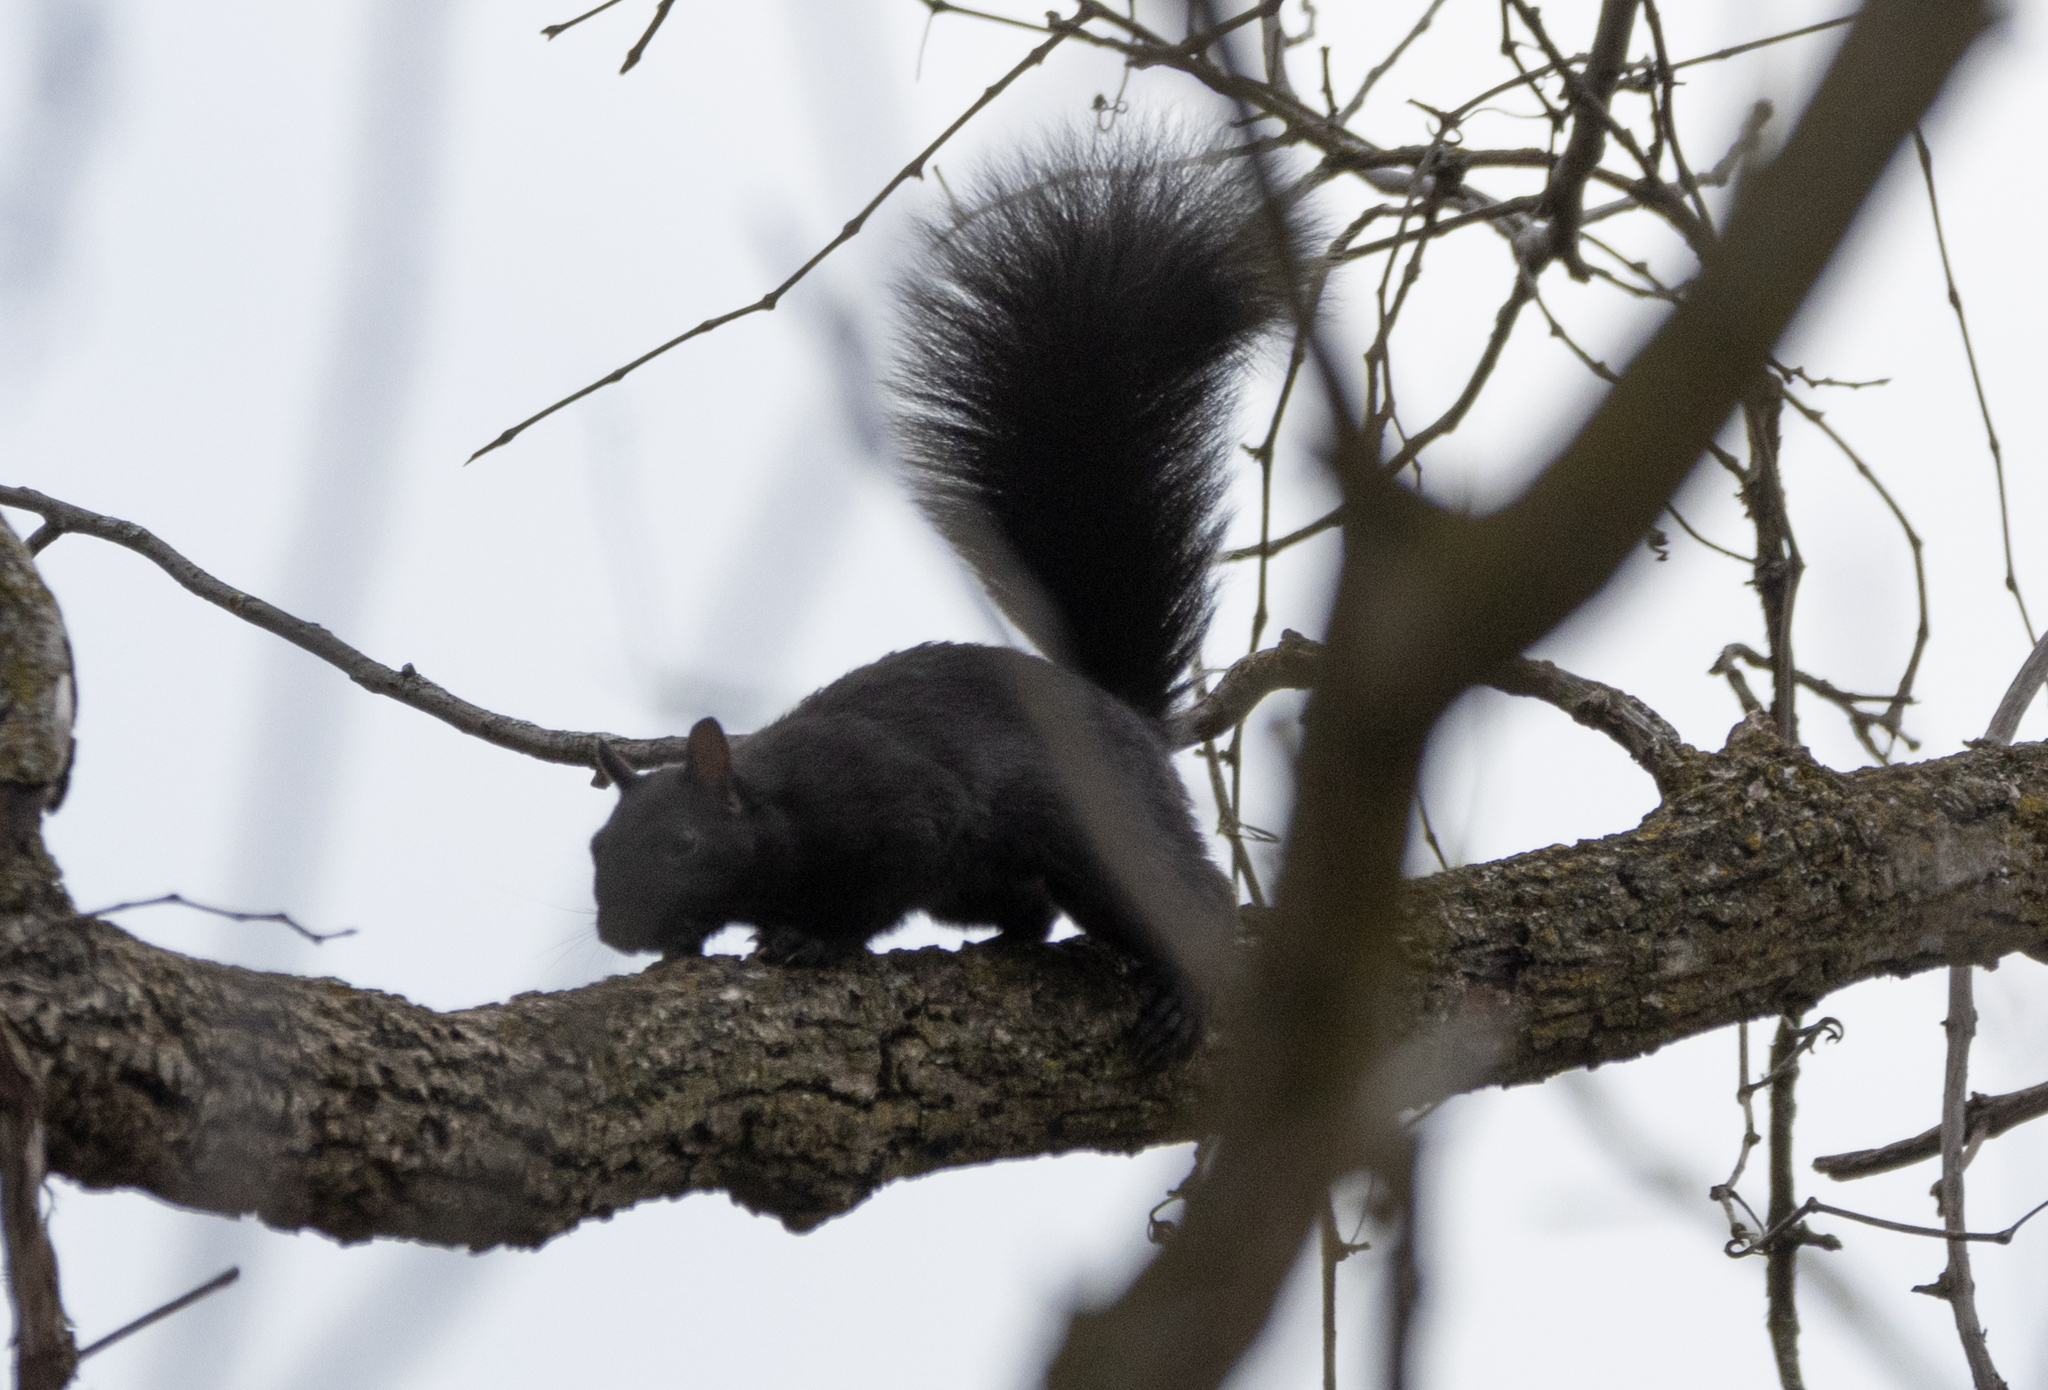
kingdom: Animalia
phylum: Chordata
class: Mammalia
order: Rodentia
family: Sciuridae
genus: Sciurus
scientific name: Sciurus carolinensis
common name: Eastern gray squirrel
